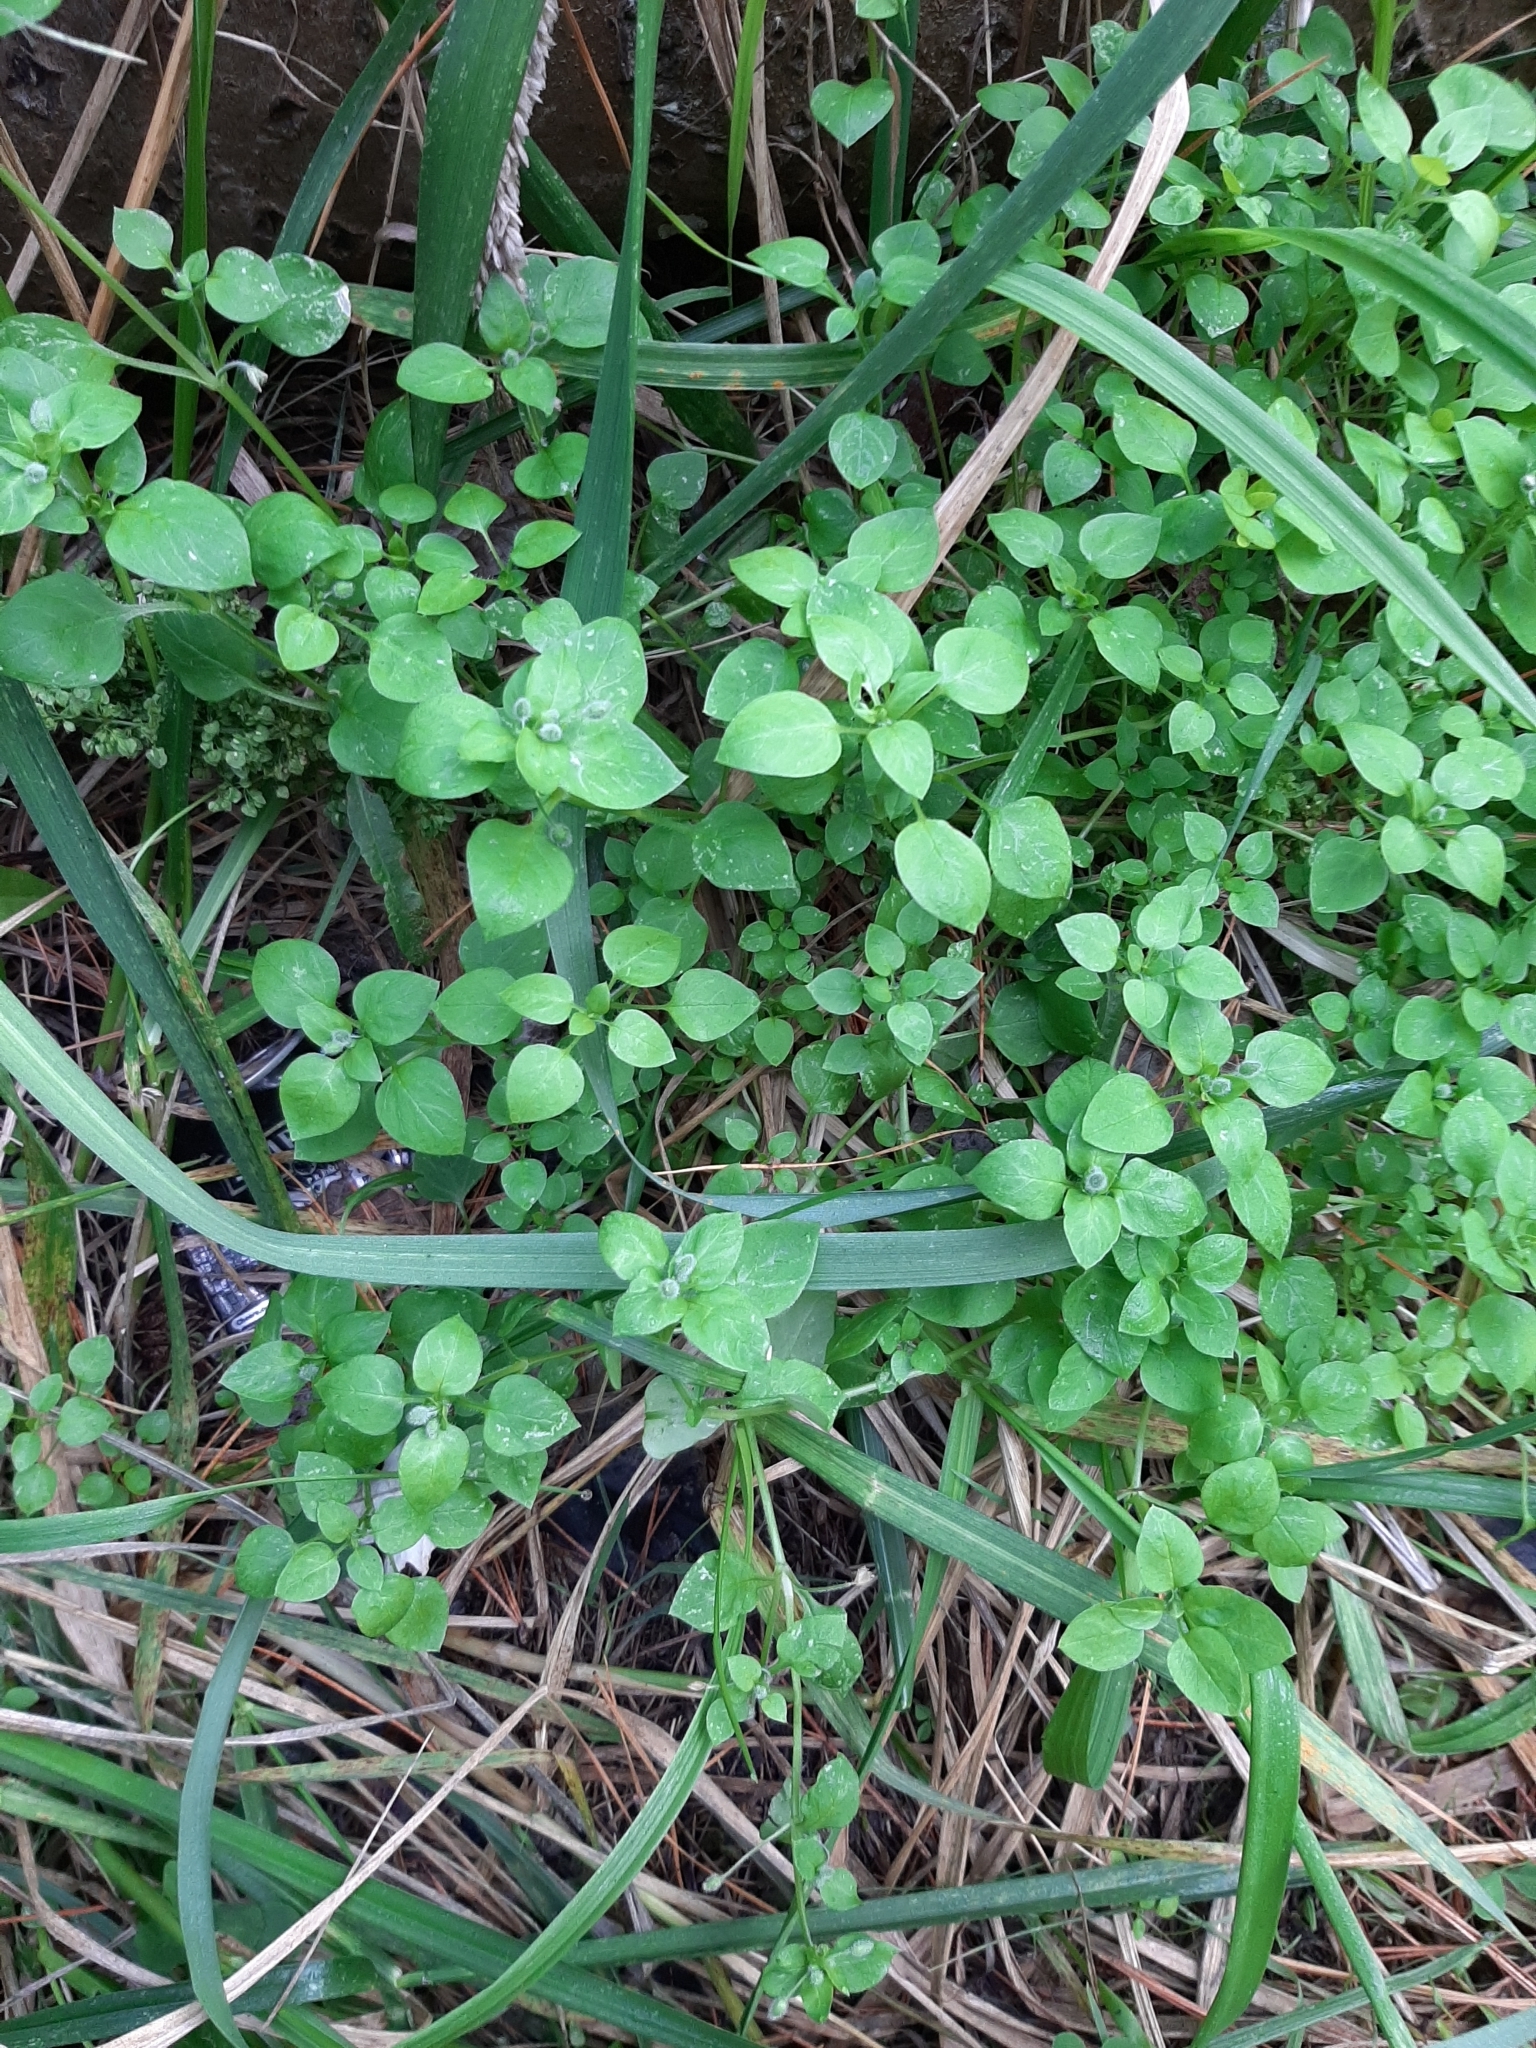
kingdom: Plantae
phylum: Tracheophyta
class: Magnoliopsida
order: Caryophyllales
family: Caryophyllaceae
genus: Stellaria
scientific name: Stellaria media
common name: Common chickweed
